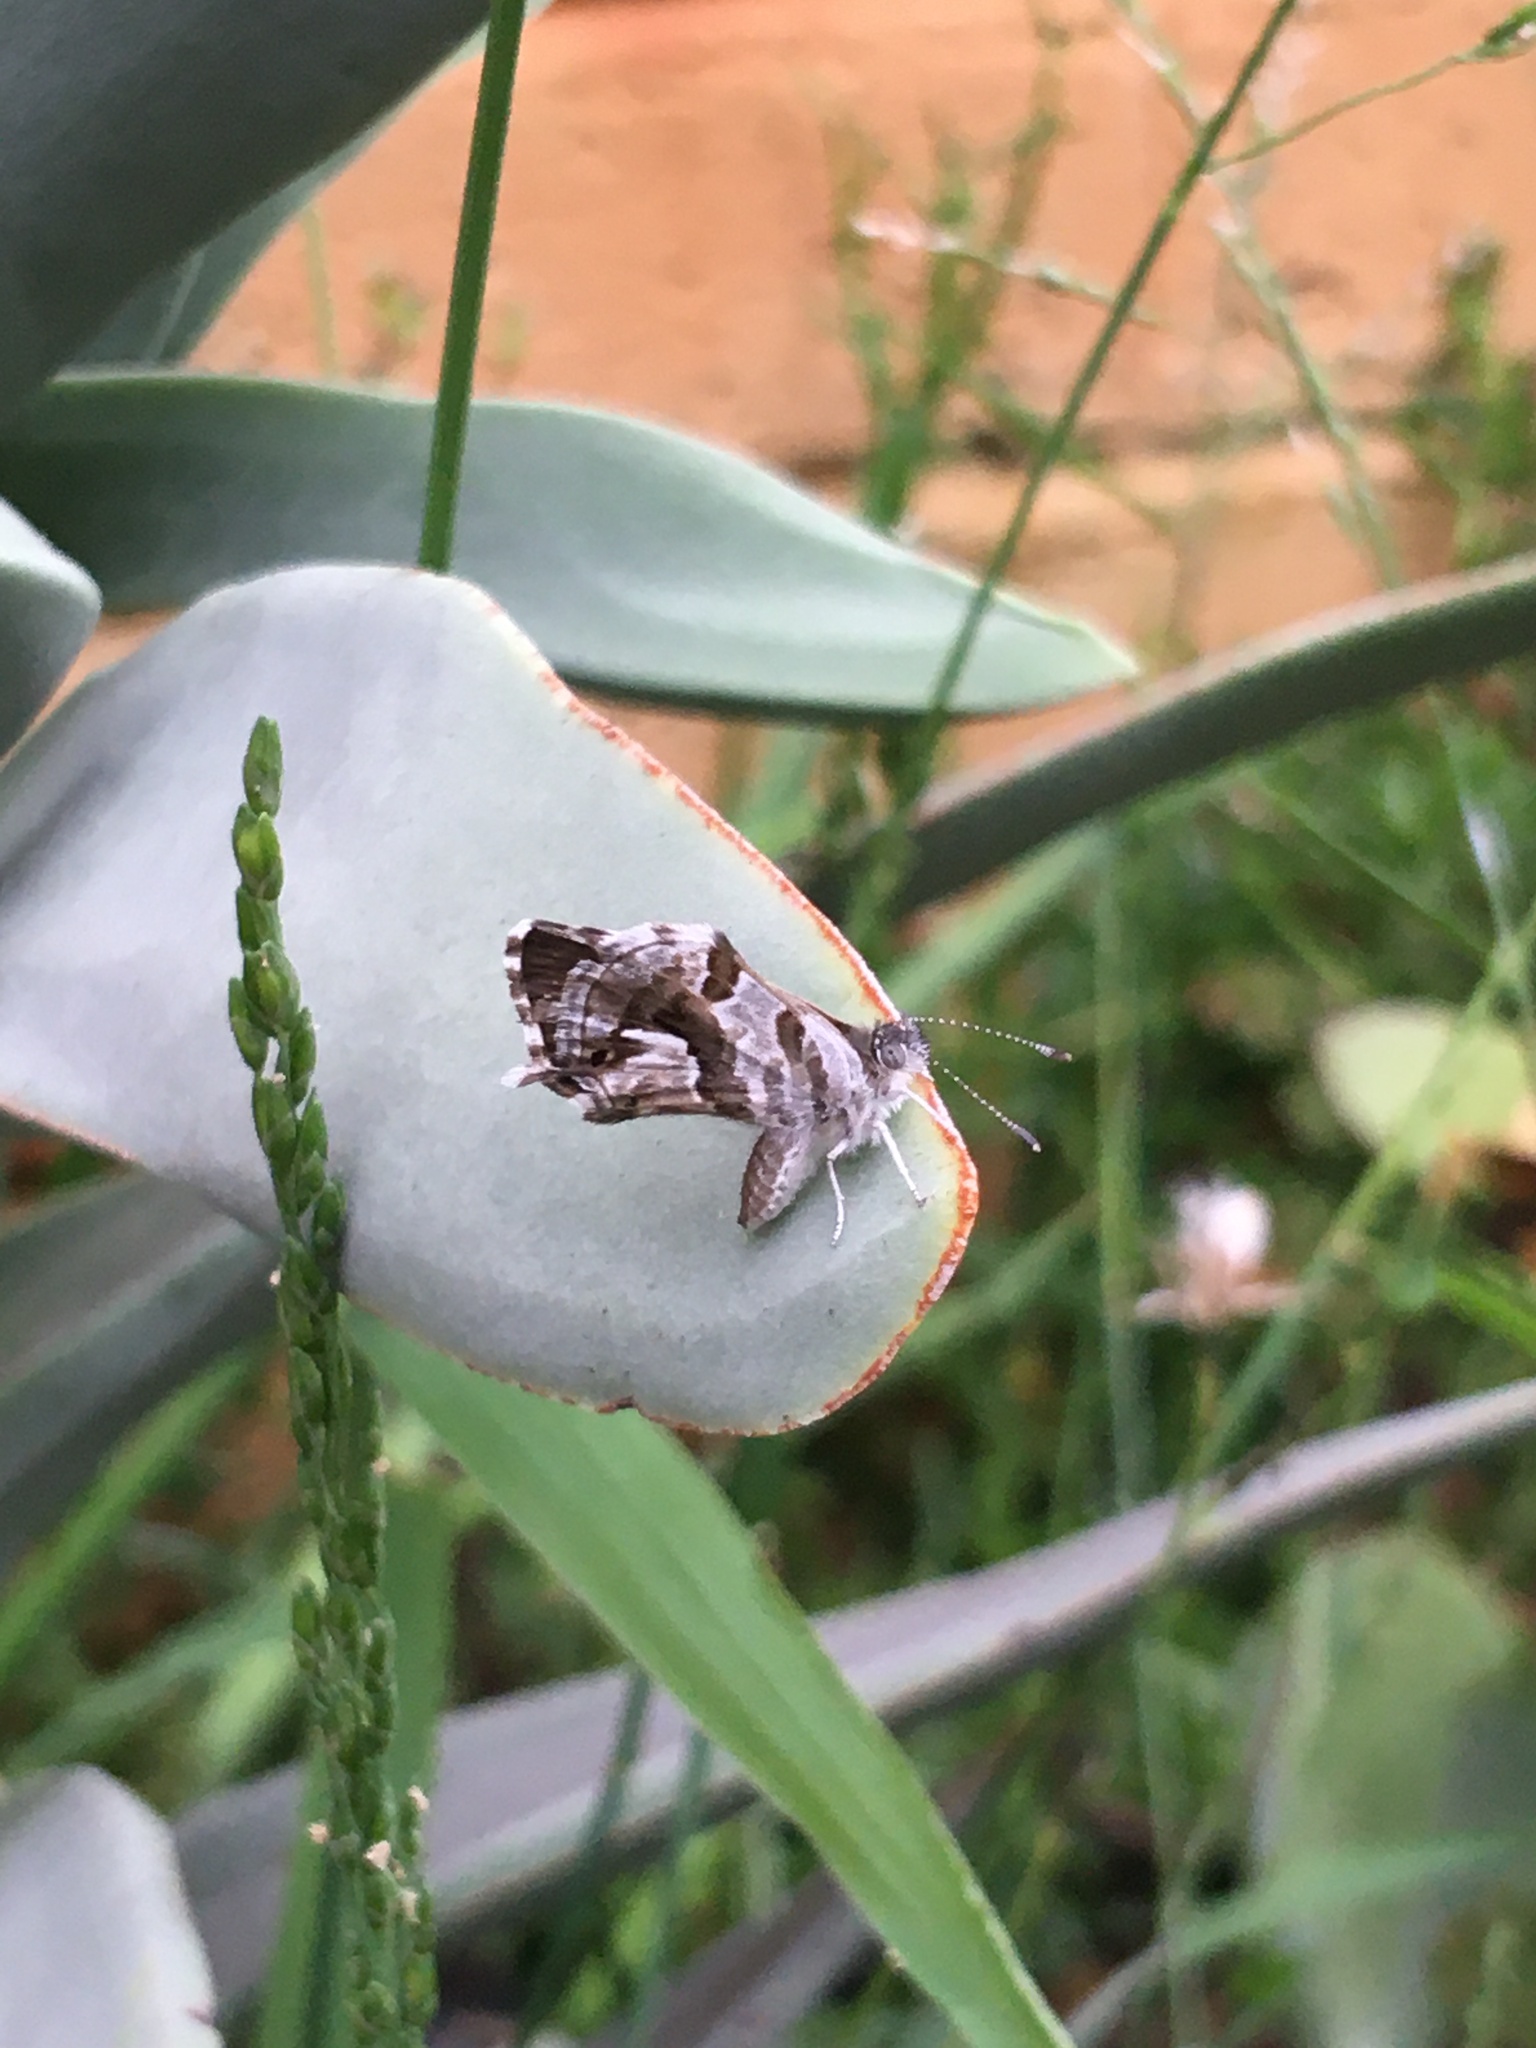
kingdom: Animalia
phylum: Arthropoda
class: Insecta
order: Lepidoptera
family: Lycaenidae
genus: Cacyreus
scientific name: Cacyreus marshalli
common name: Geranium bronze
